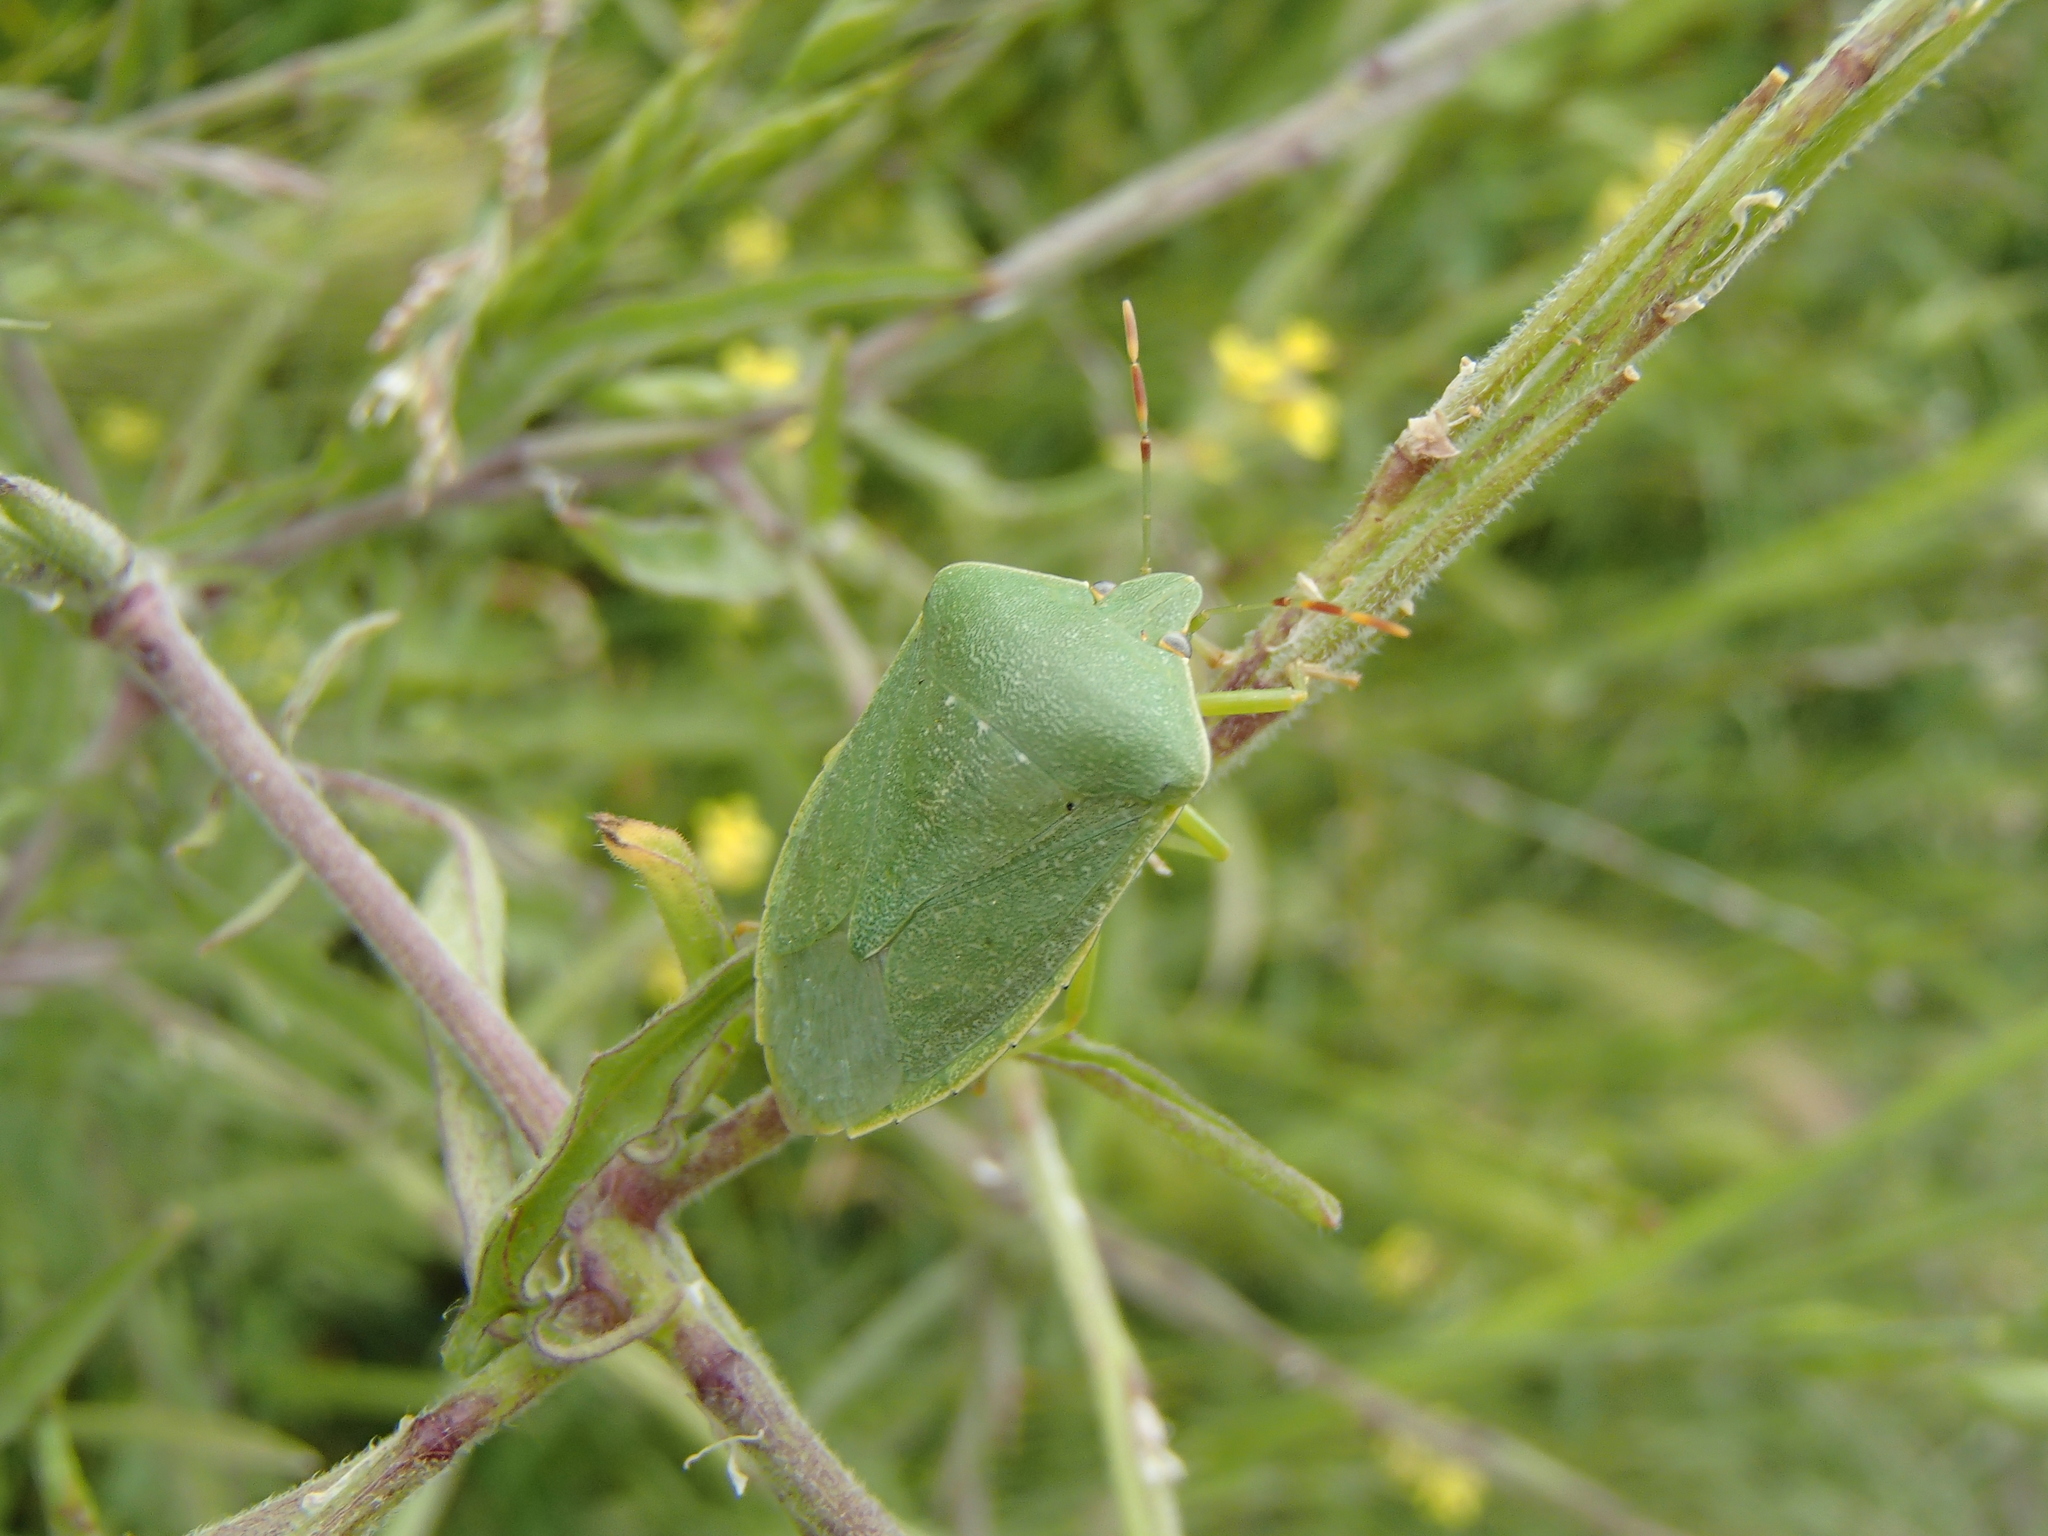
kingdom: Animalia
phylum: Arthropoda
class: Insecta
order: Hemiptera
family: Pentatomidae
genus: Nezara
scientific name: Nezara viridula
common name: Southern green stink bug
